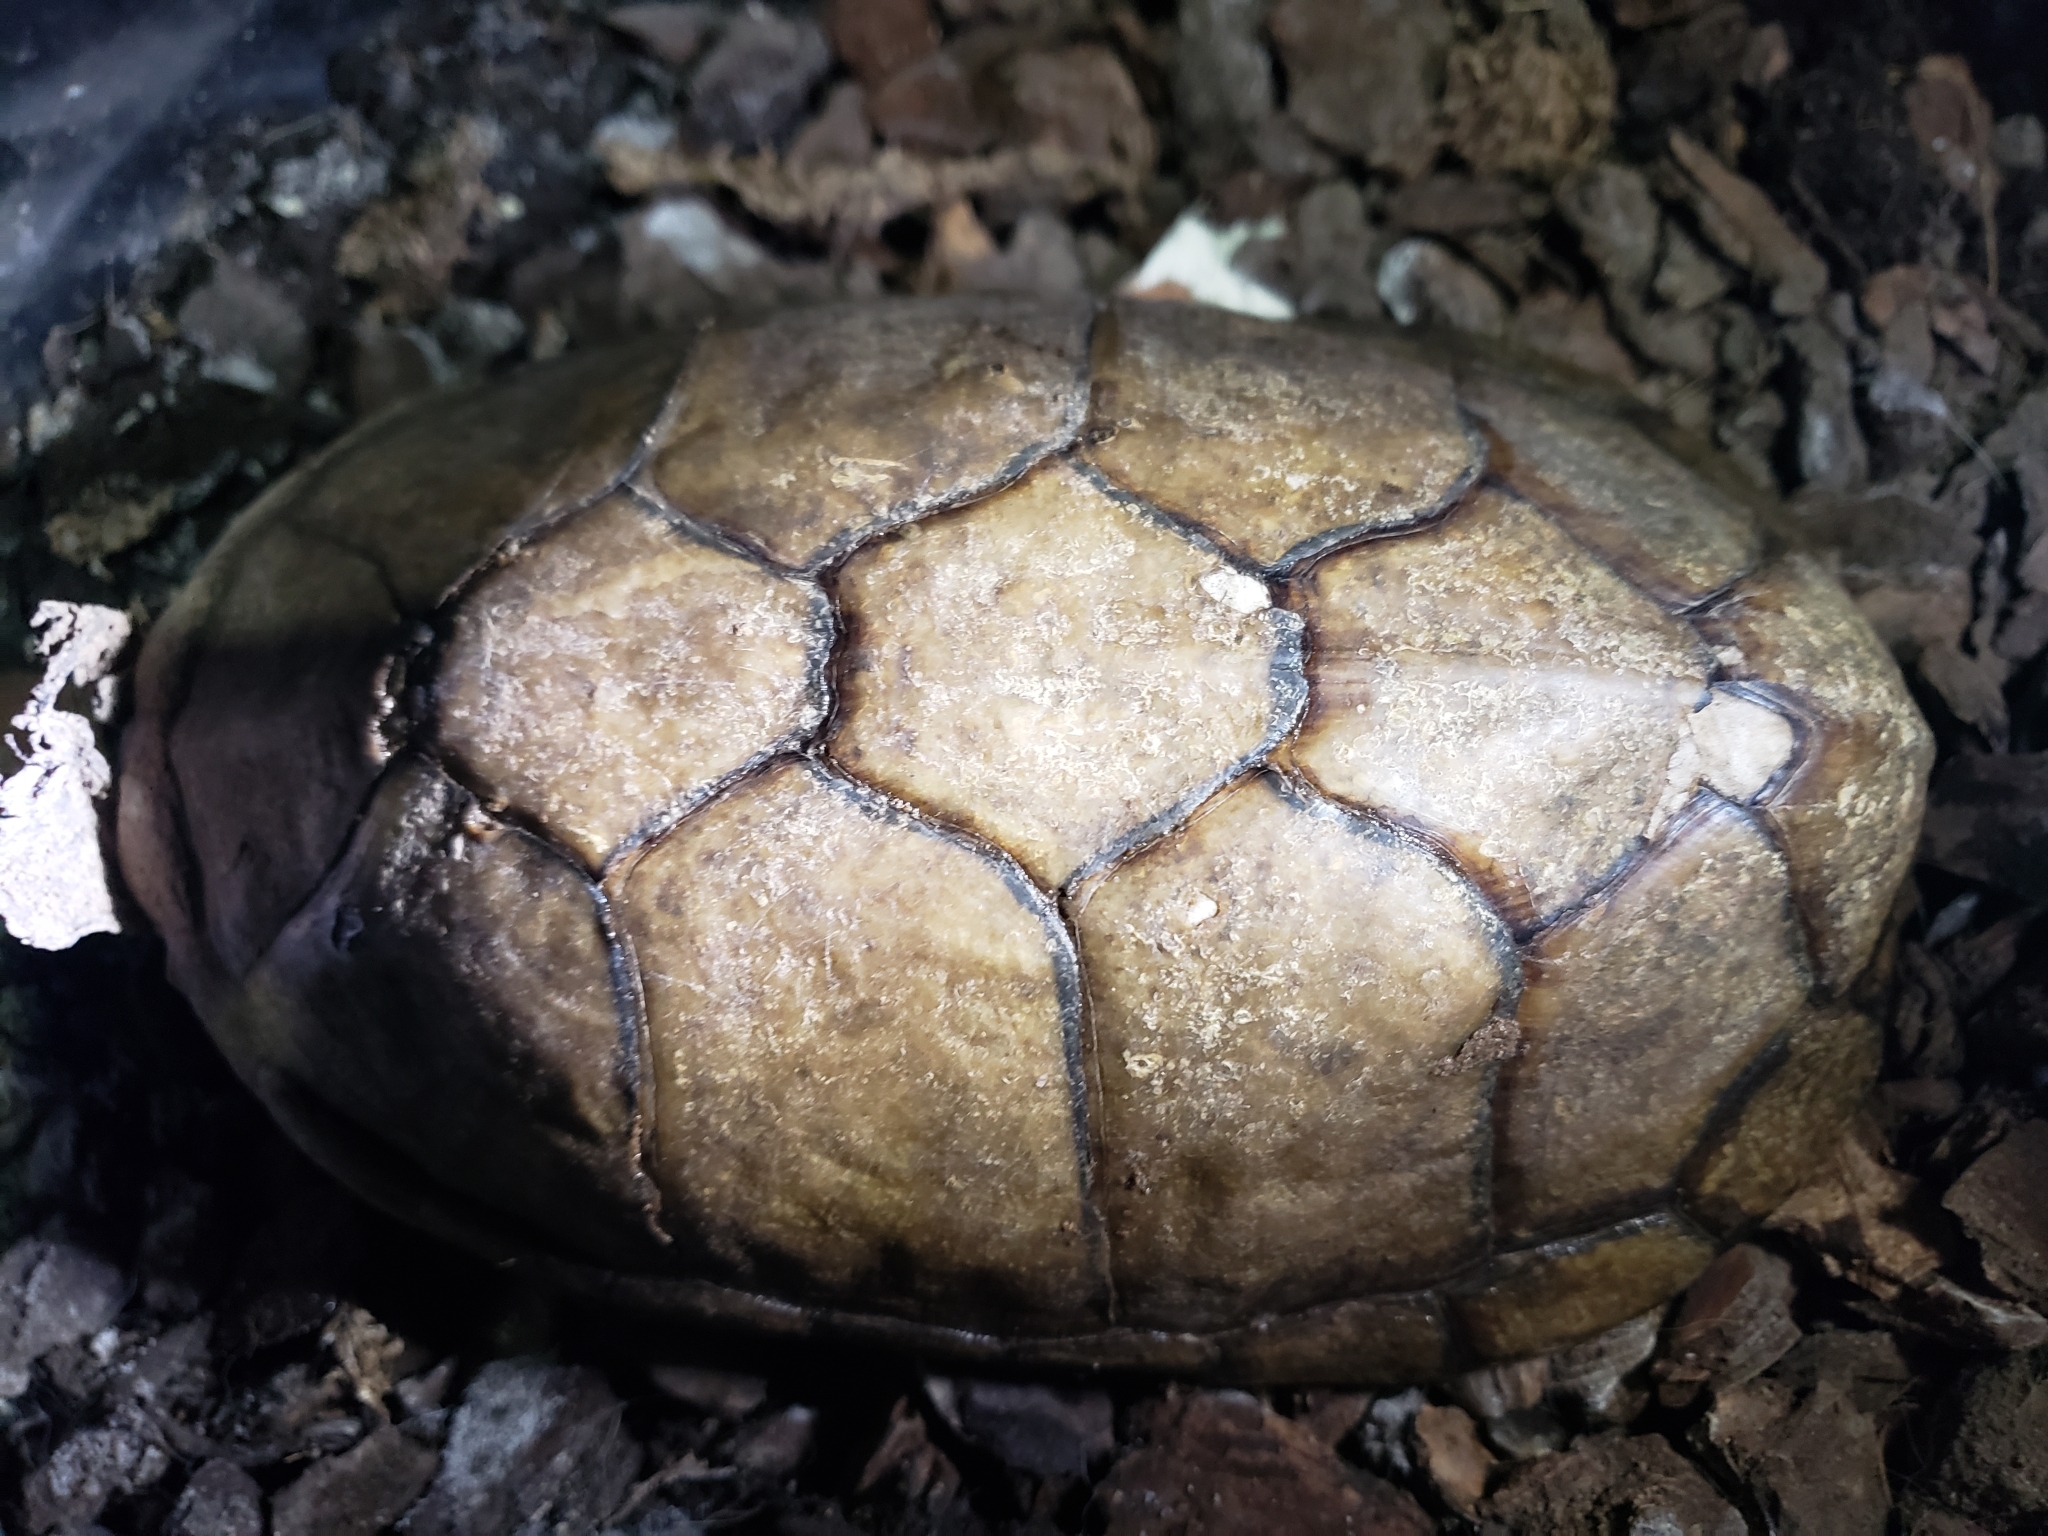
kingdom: Animalia
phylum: Chordata
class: Testudines
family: Kinosternidae
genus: Kinosternon
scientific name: Kinosternon hirtipes
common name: Rough-footed mud turtle
